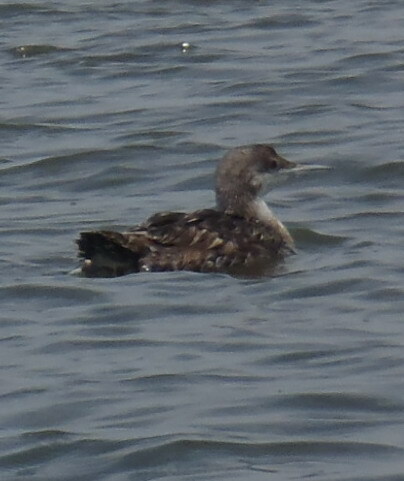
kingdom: Animalia
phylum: Chordata
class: Aves
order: Gaviiformes
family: Gaviidae
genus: Gavia
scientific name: Gavia immer
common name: Common loon
